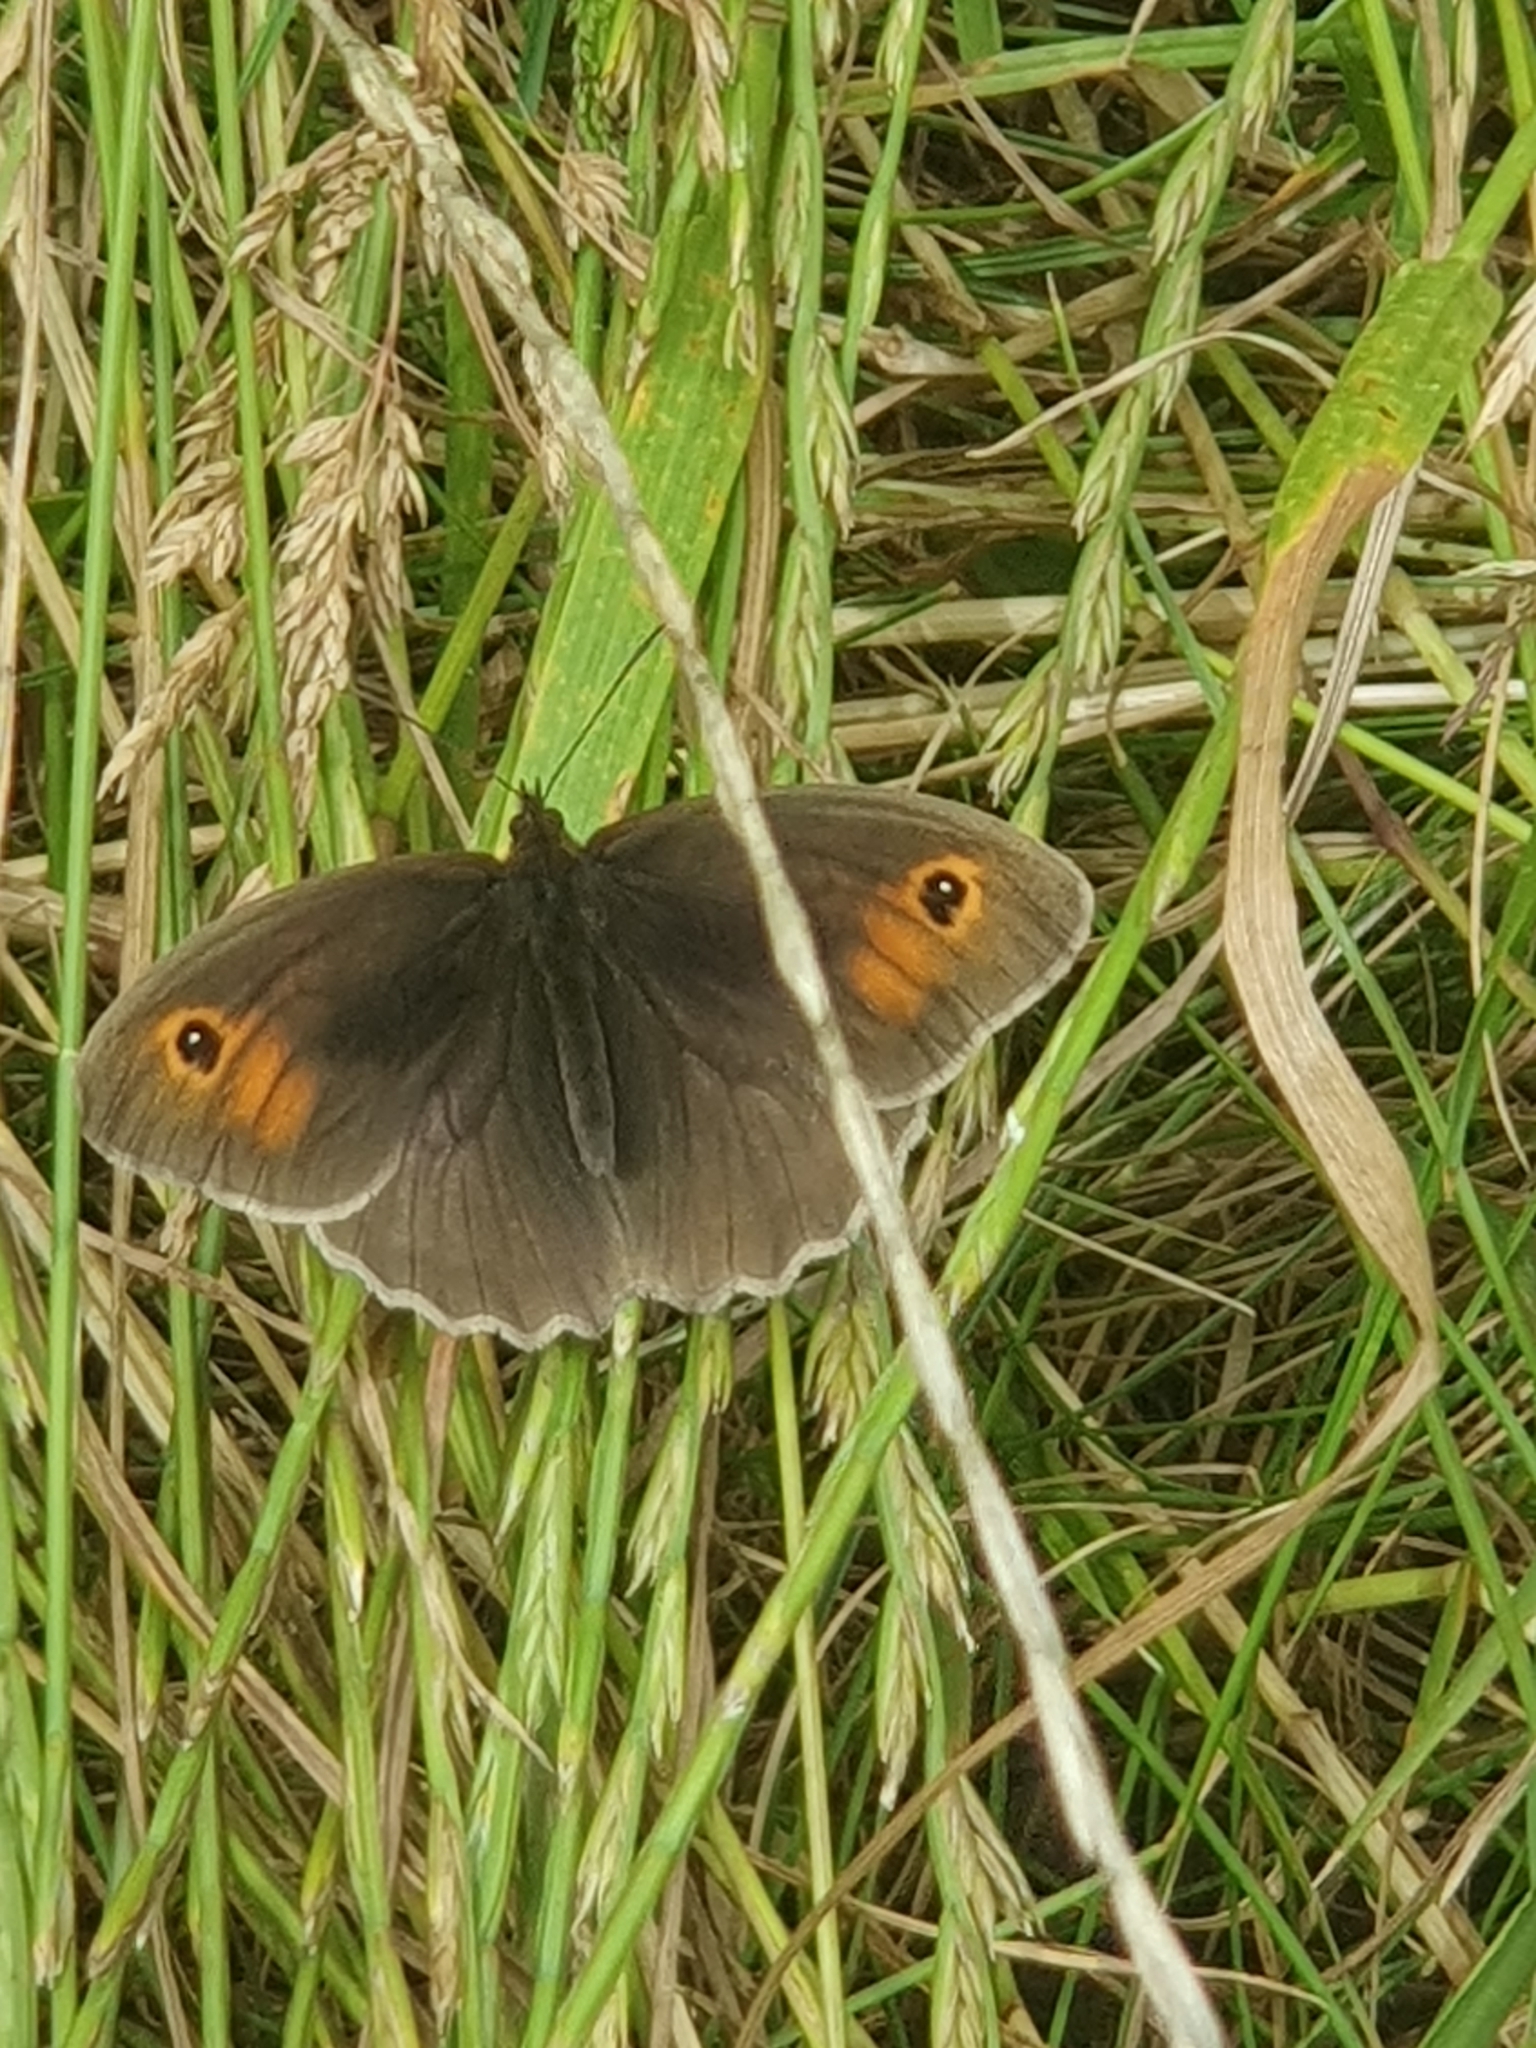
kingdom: Animalia
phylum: Arthropoda
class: Insecta
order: Lepidoptera
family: Nymphalidae
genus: Maniola
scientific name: Maniola jurtina
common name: Meadow brown
